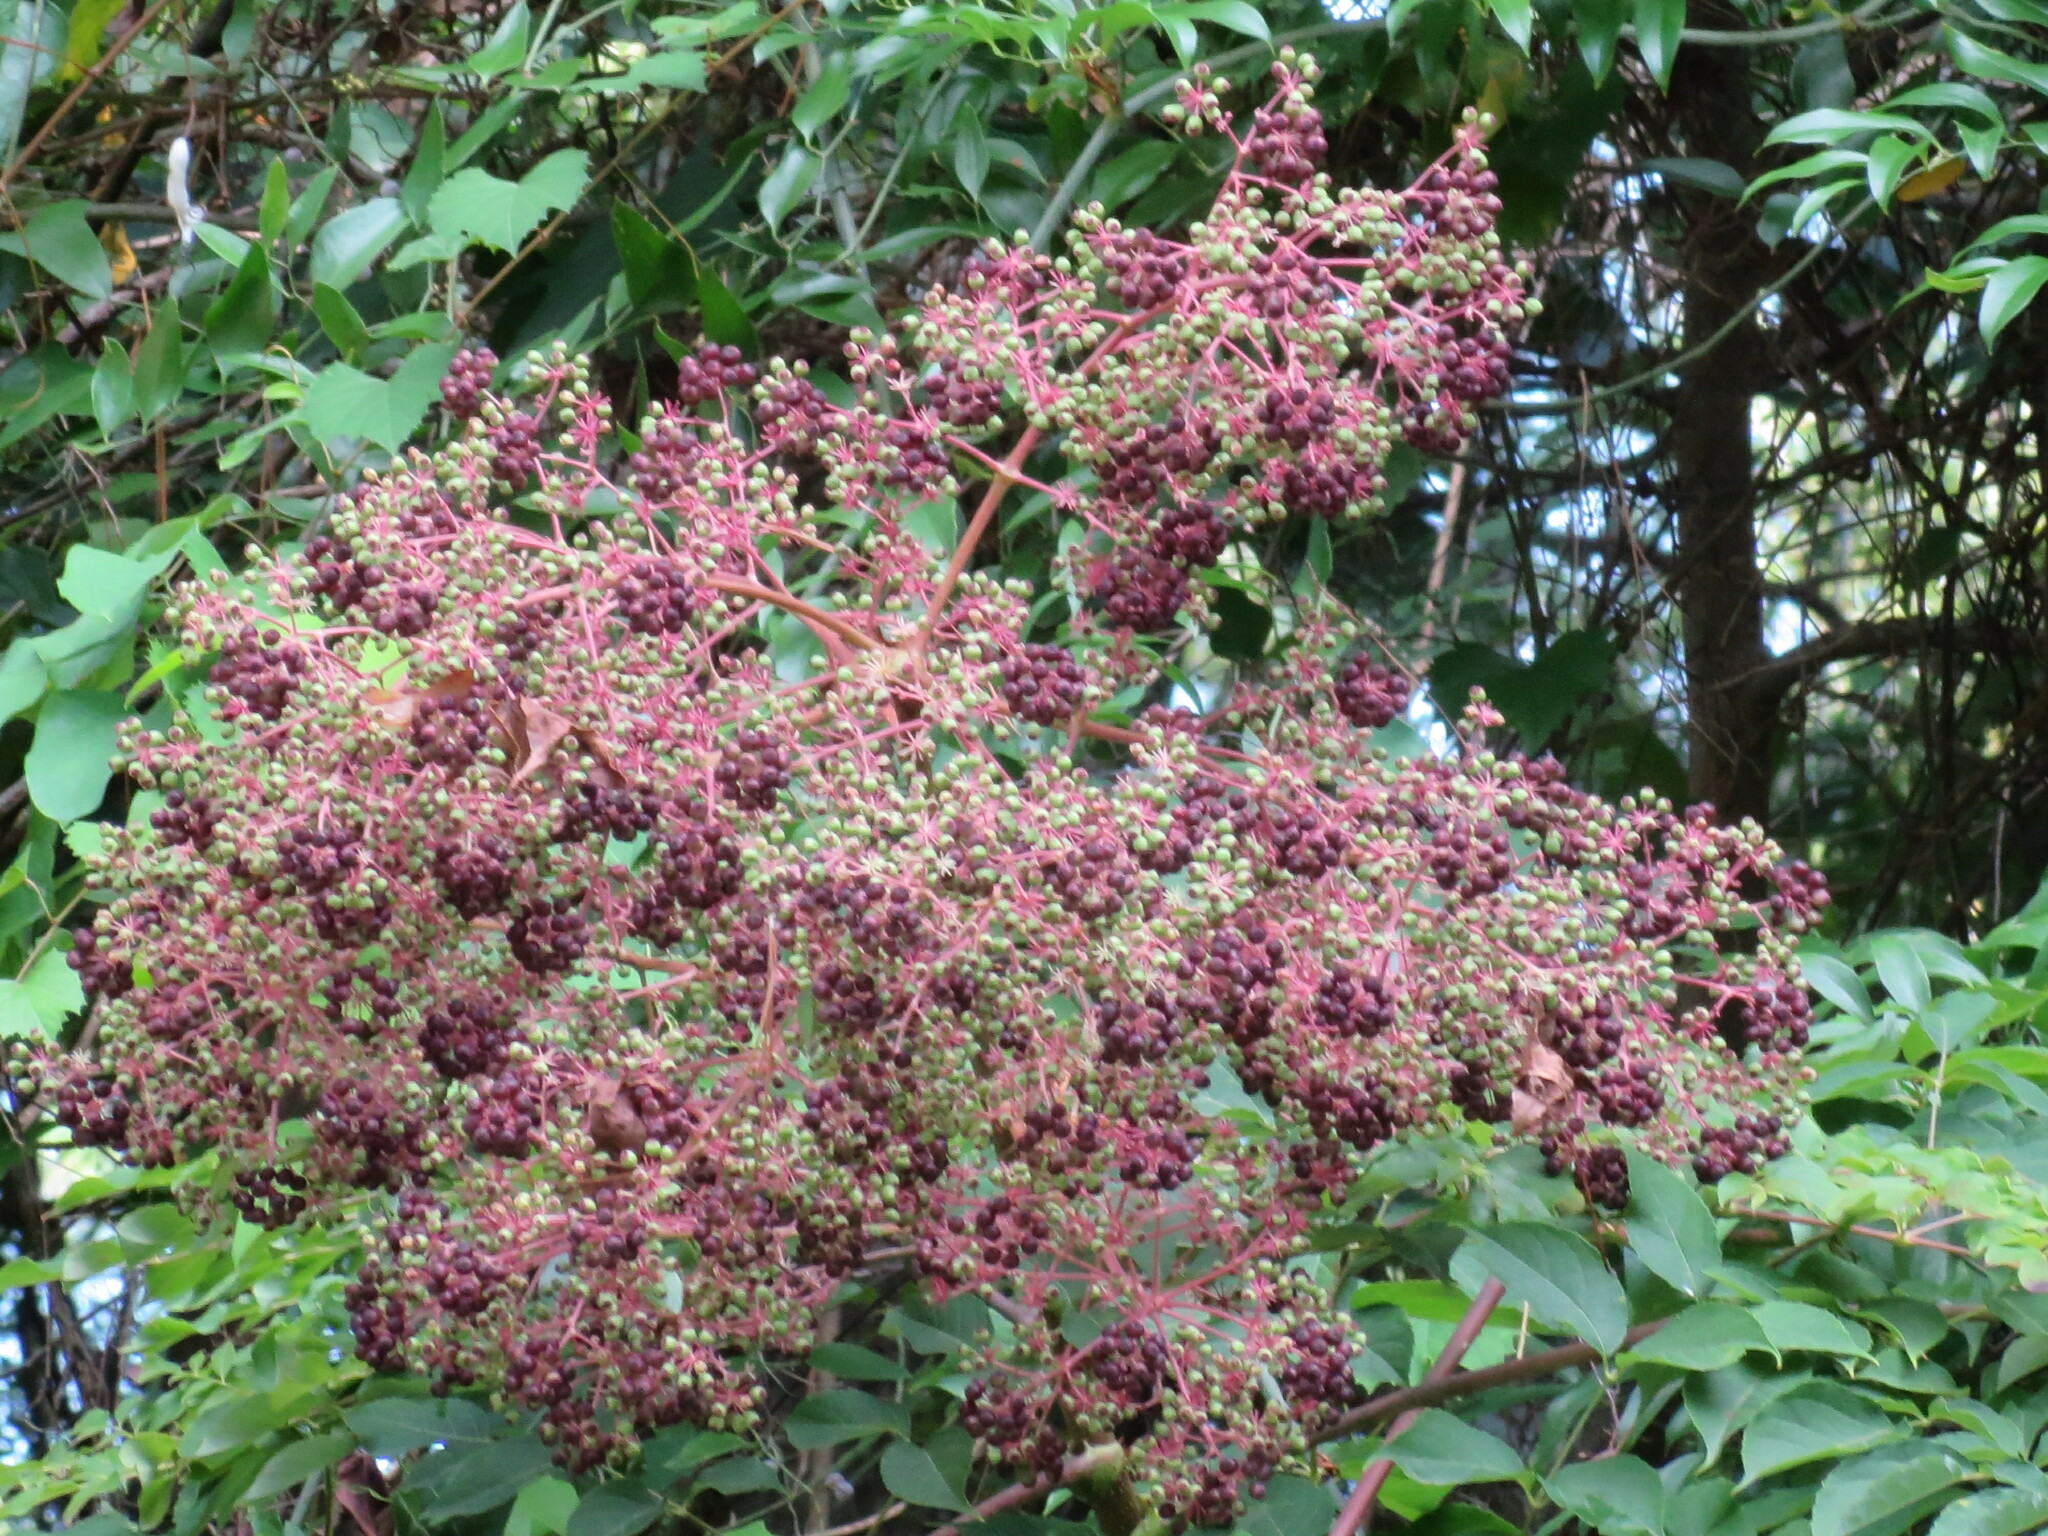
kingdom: Plantae
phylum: Tracheophyta
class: Magnoliopsida
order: Apiales
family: Araliaceae
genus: Aralia
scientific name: Aralia spinosa
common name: Hercules'-club
